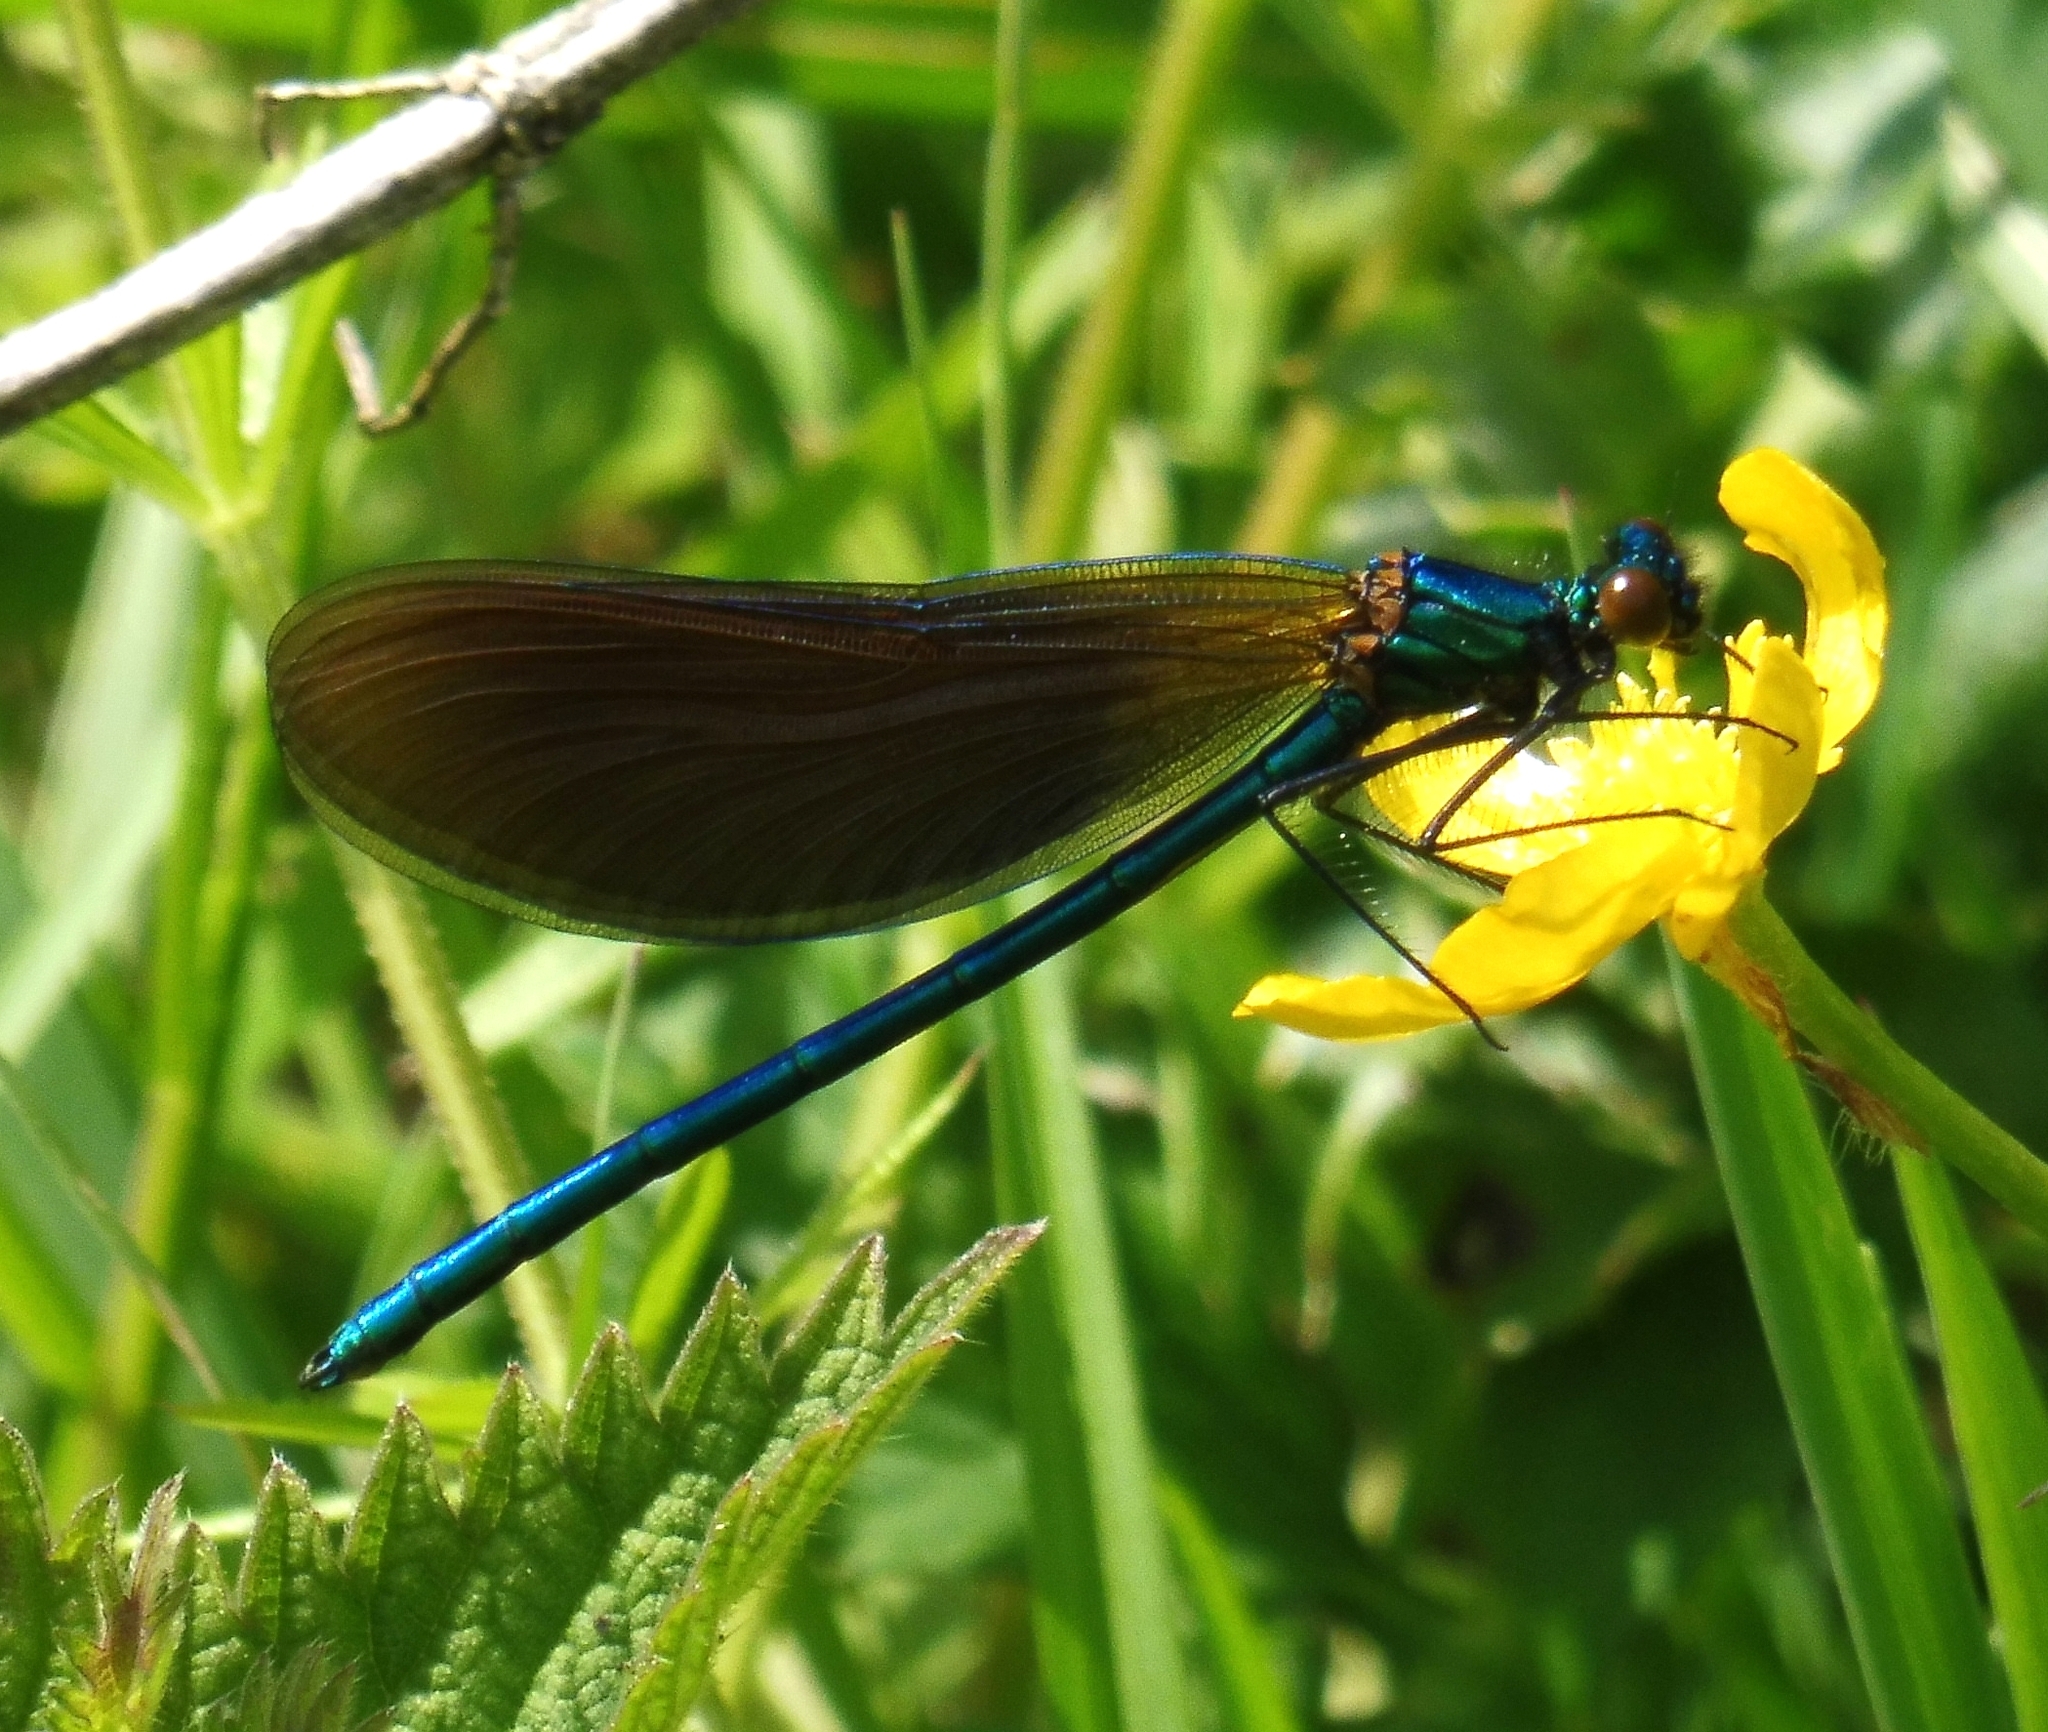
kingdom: Animalia
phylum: Arthropoda
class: Insecta
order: Odonata
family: Calopterygidae
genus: Calopteryx
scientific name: Calopteryx virgo
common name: Beautiful demoiselle
